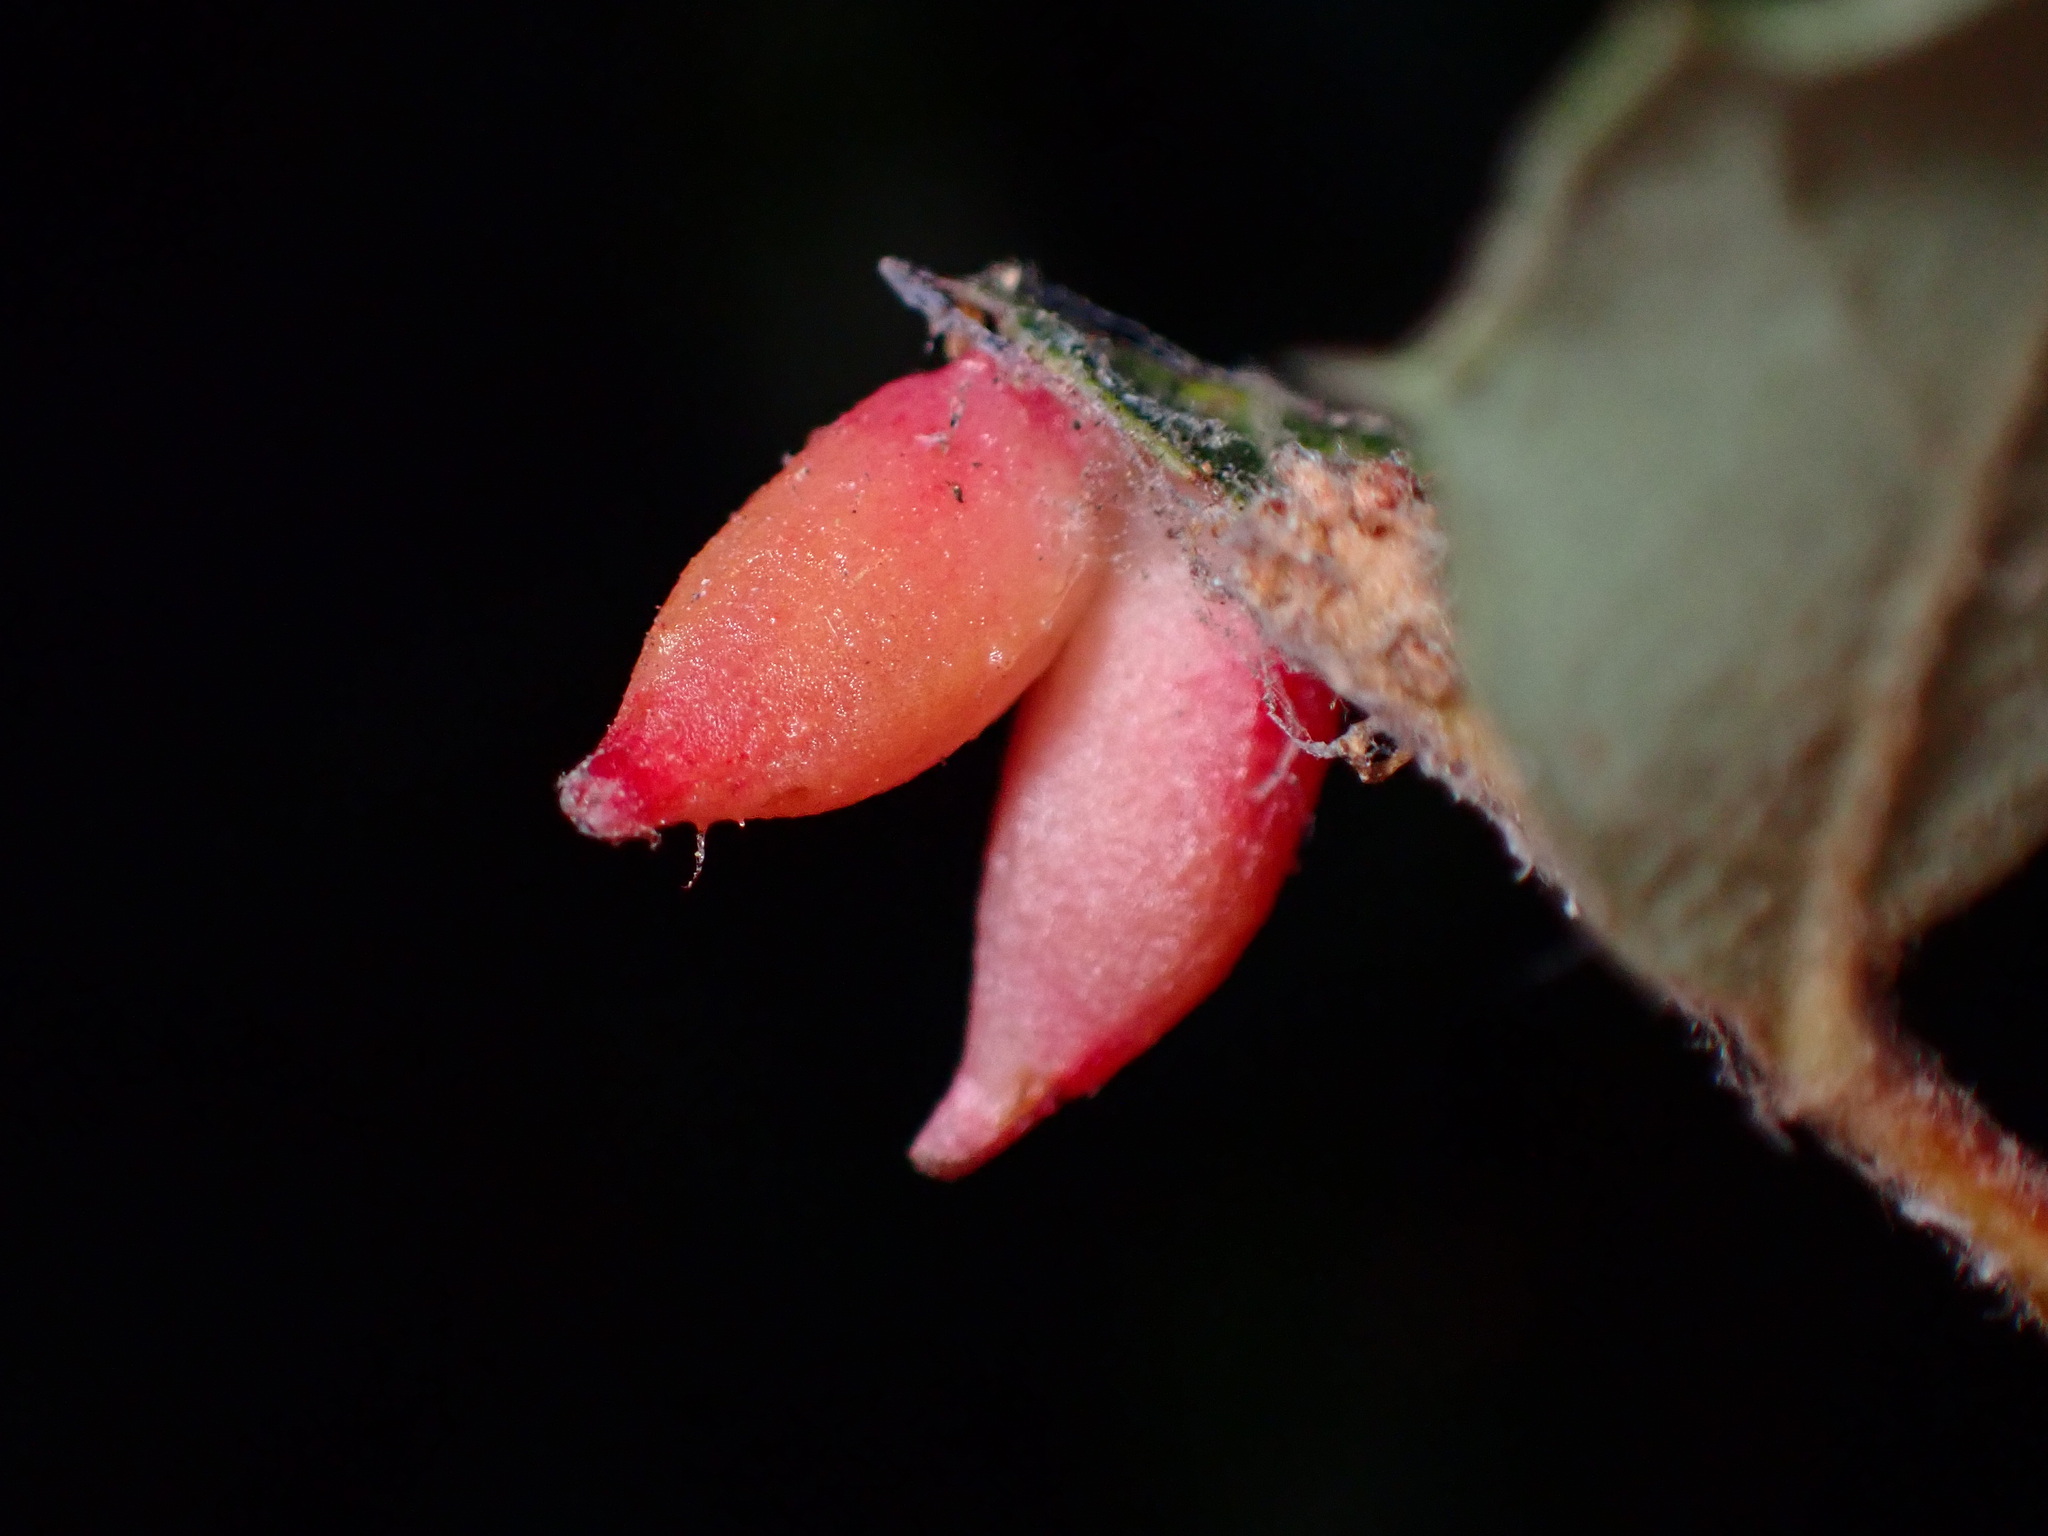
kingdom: Animalia
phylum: Arthropoda
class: Insecta
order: Hymenoptera
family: Cynipidae
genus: Andricus
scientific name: Andricus
